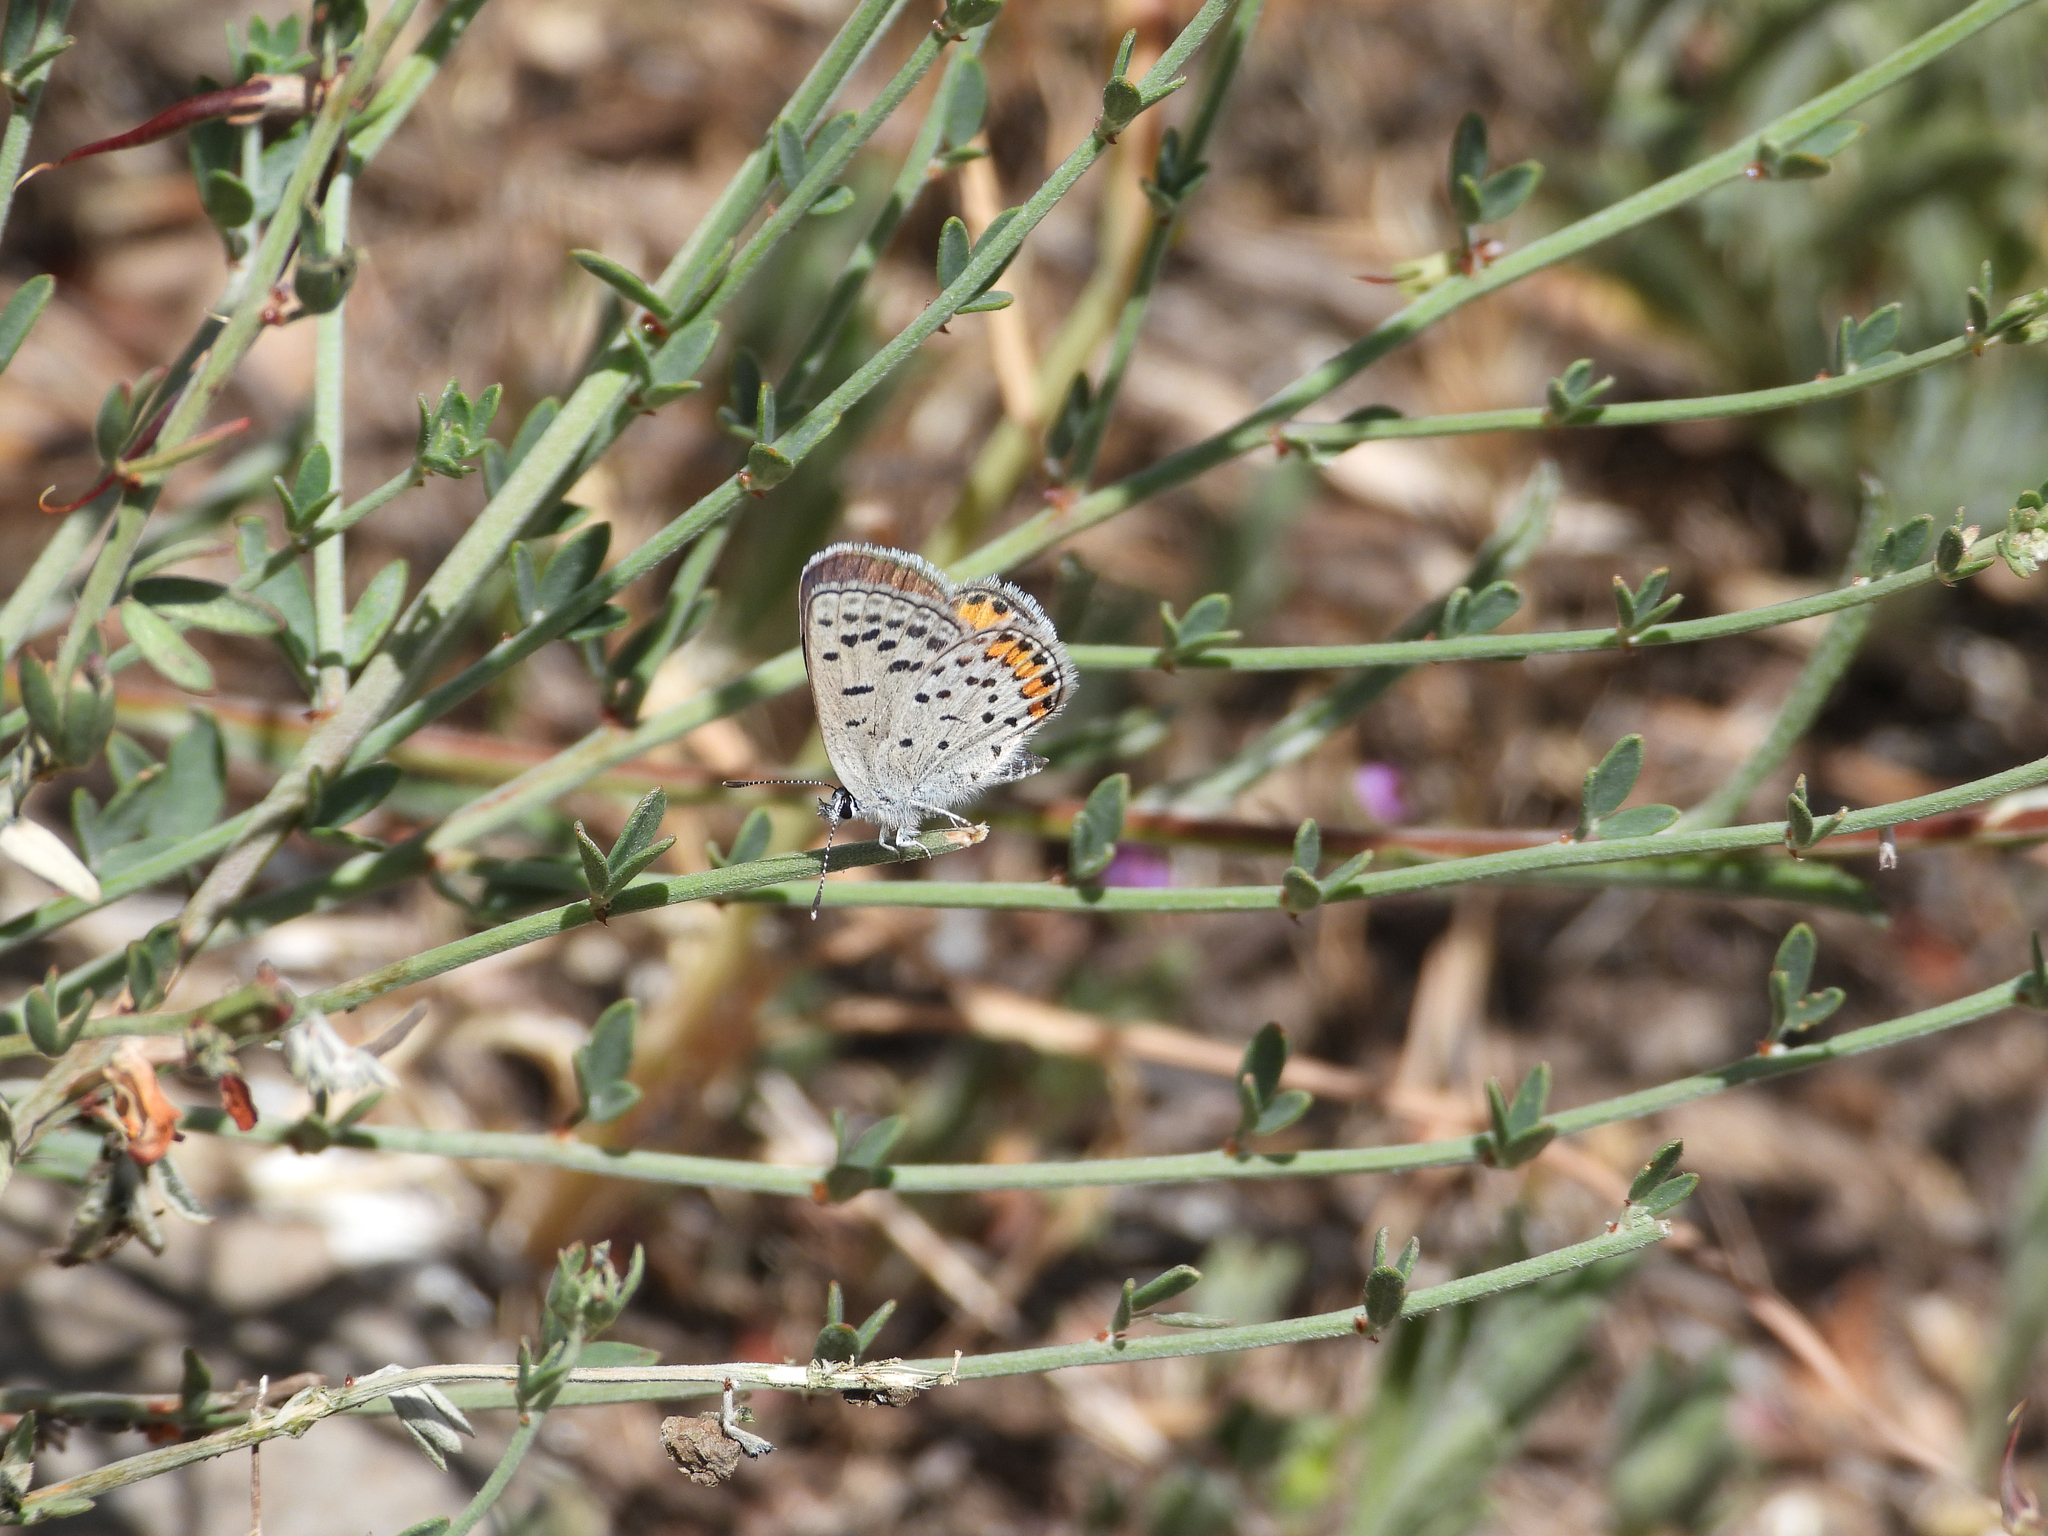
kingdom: Animalia
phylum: Arthropoda
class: Insecta
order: Lepidoptera
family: Lycaenidae
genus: Icaricia
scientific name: Icaricia acmon
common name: Acmon blue
